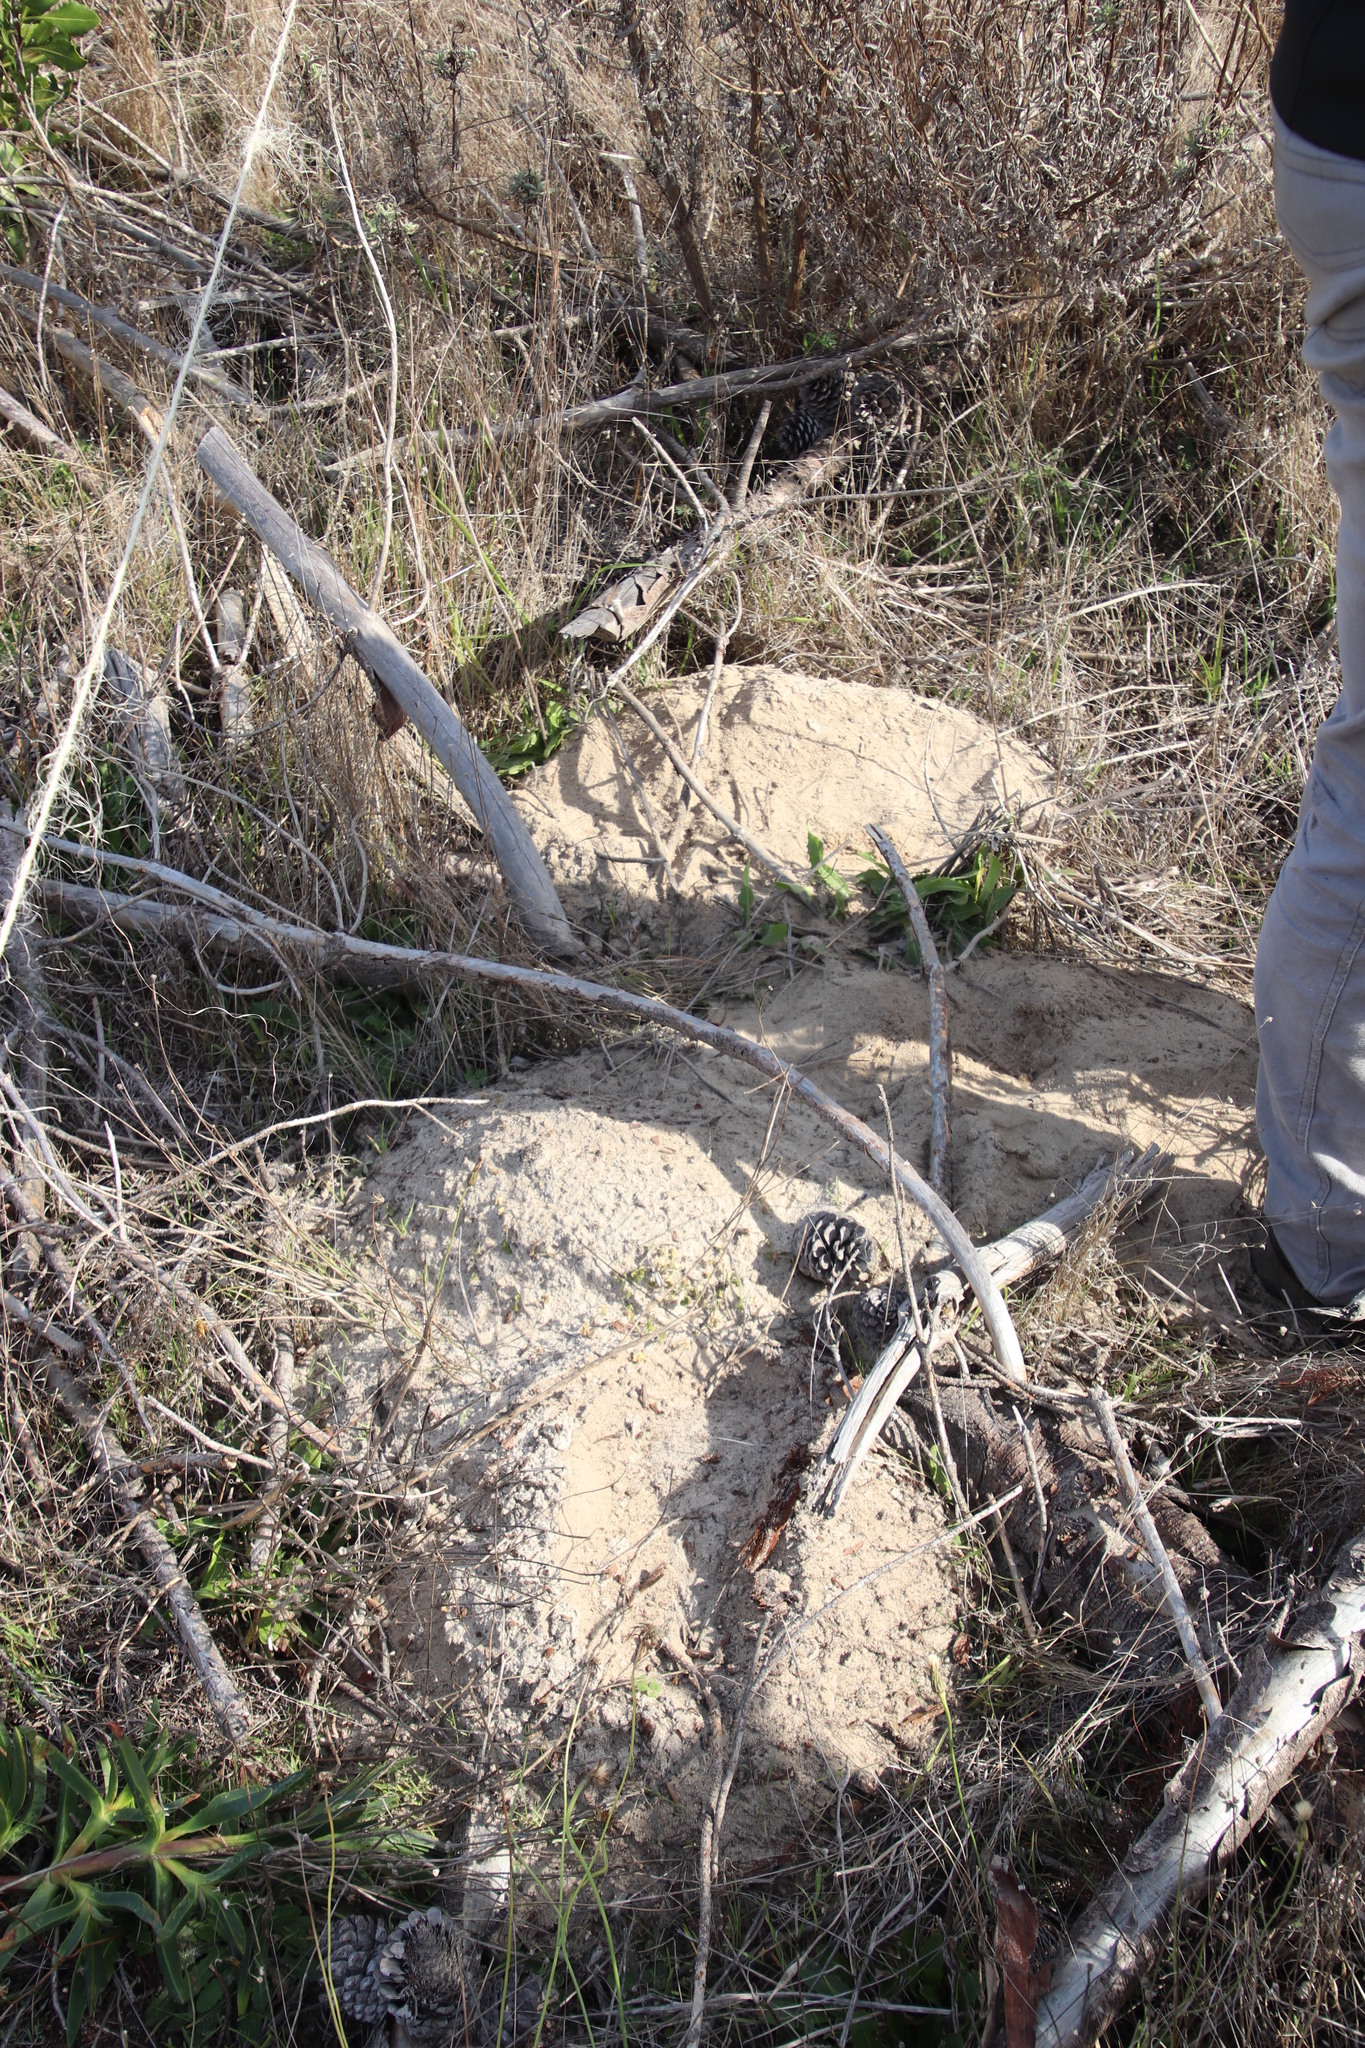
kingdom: Animalia
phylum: Chordata
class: Mammalia
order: Rodentia
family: Bathyergidae
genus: Bathyergus
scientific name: Bathyergus suillus
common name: Cape dune mole rat
